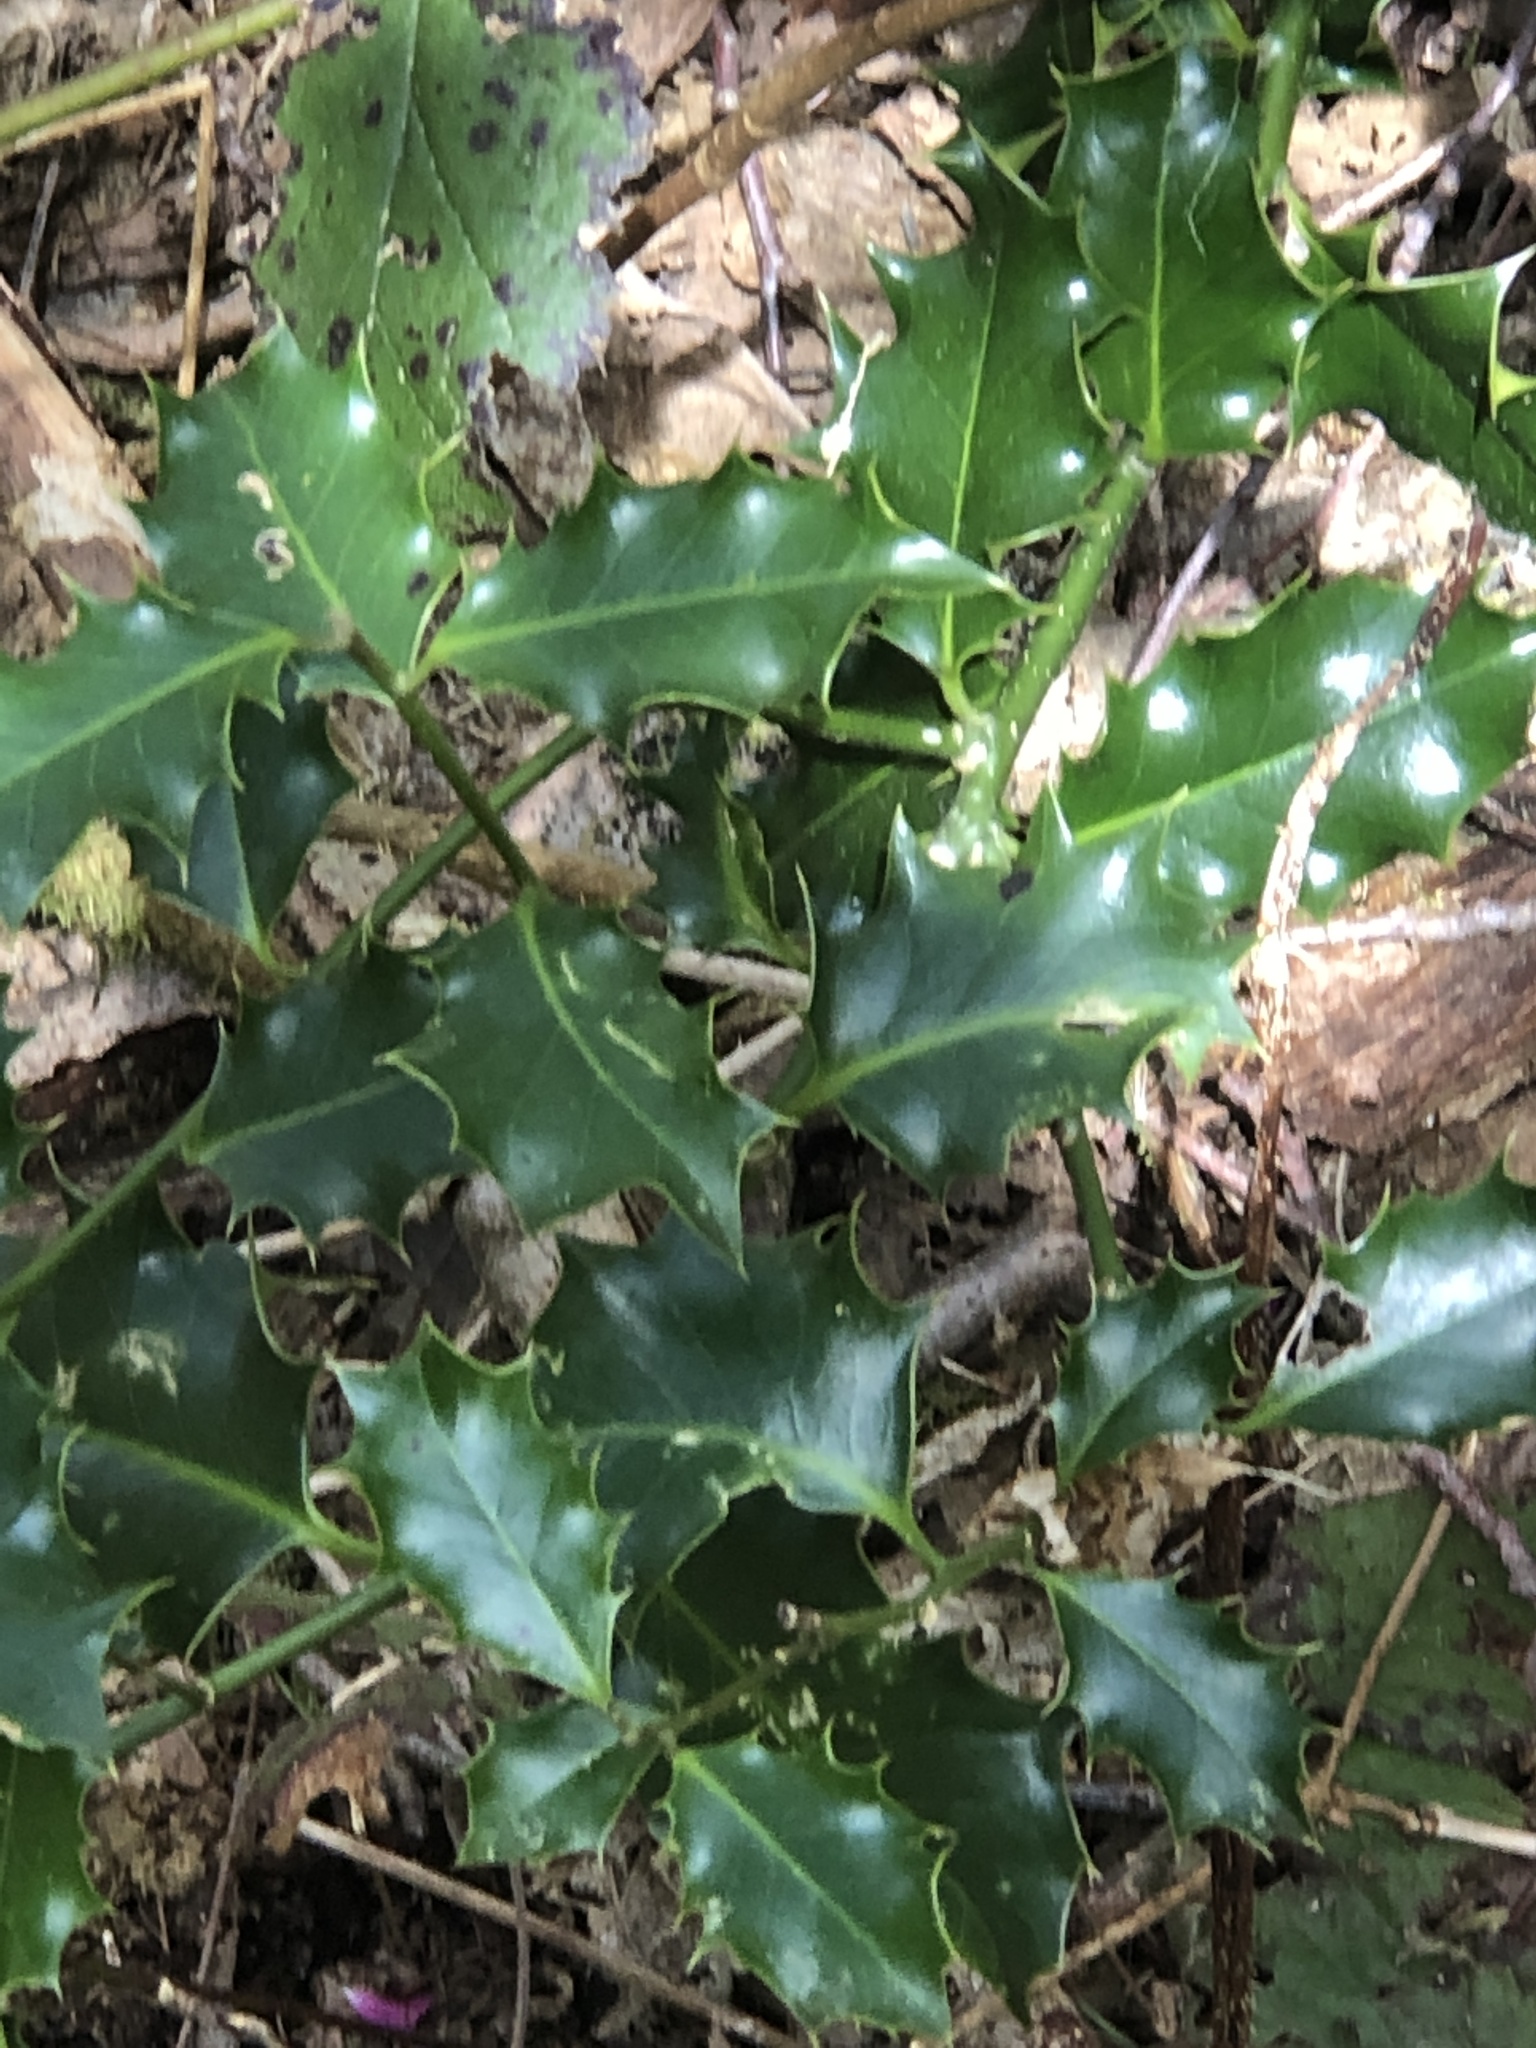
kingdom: Plantae
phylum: Tracheophyta
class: Magnoliopsida
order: Aquifoliales
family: Aquifoliaceae
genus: Ilex
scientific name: Ilex aquifolium
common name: English holly
